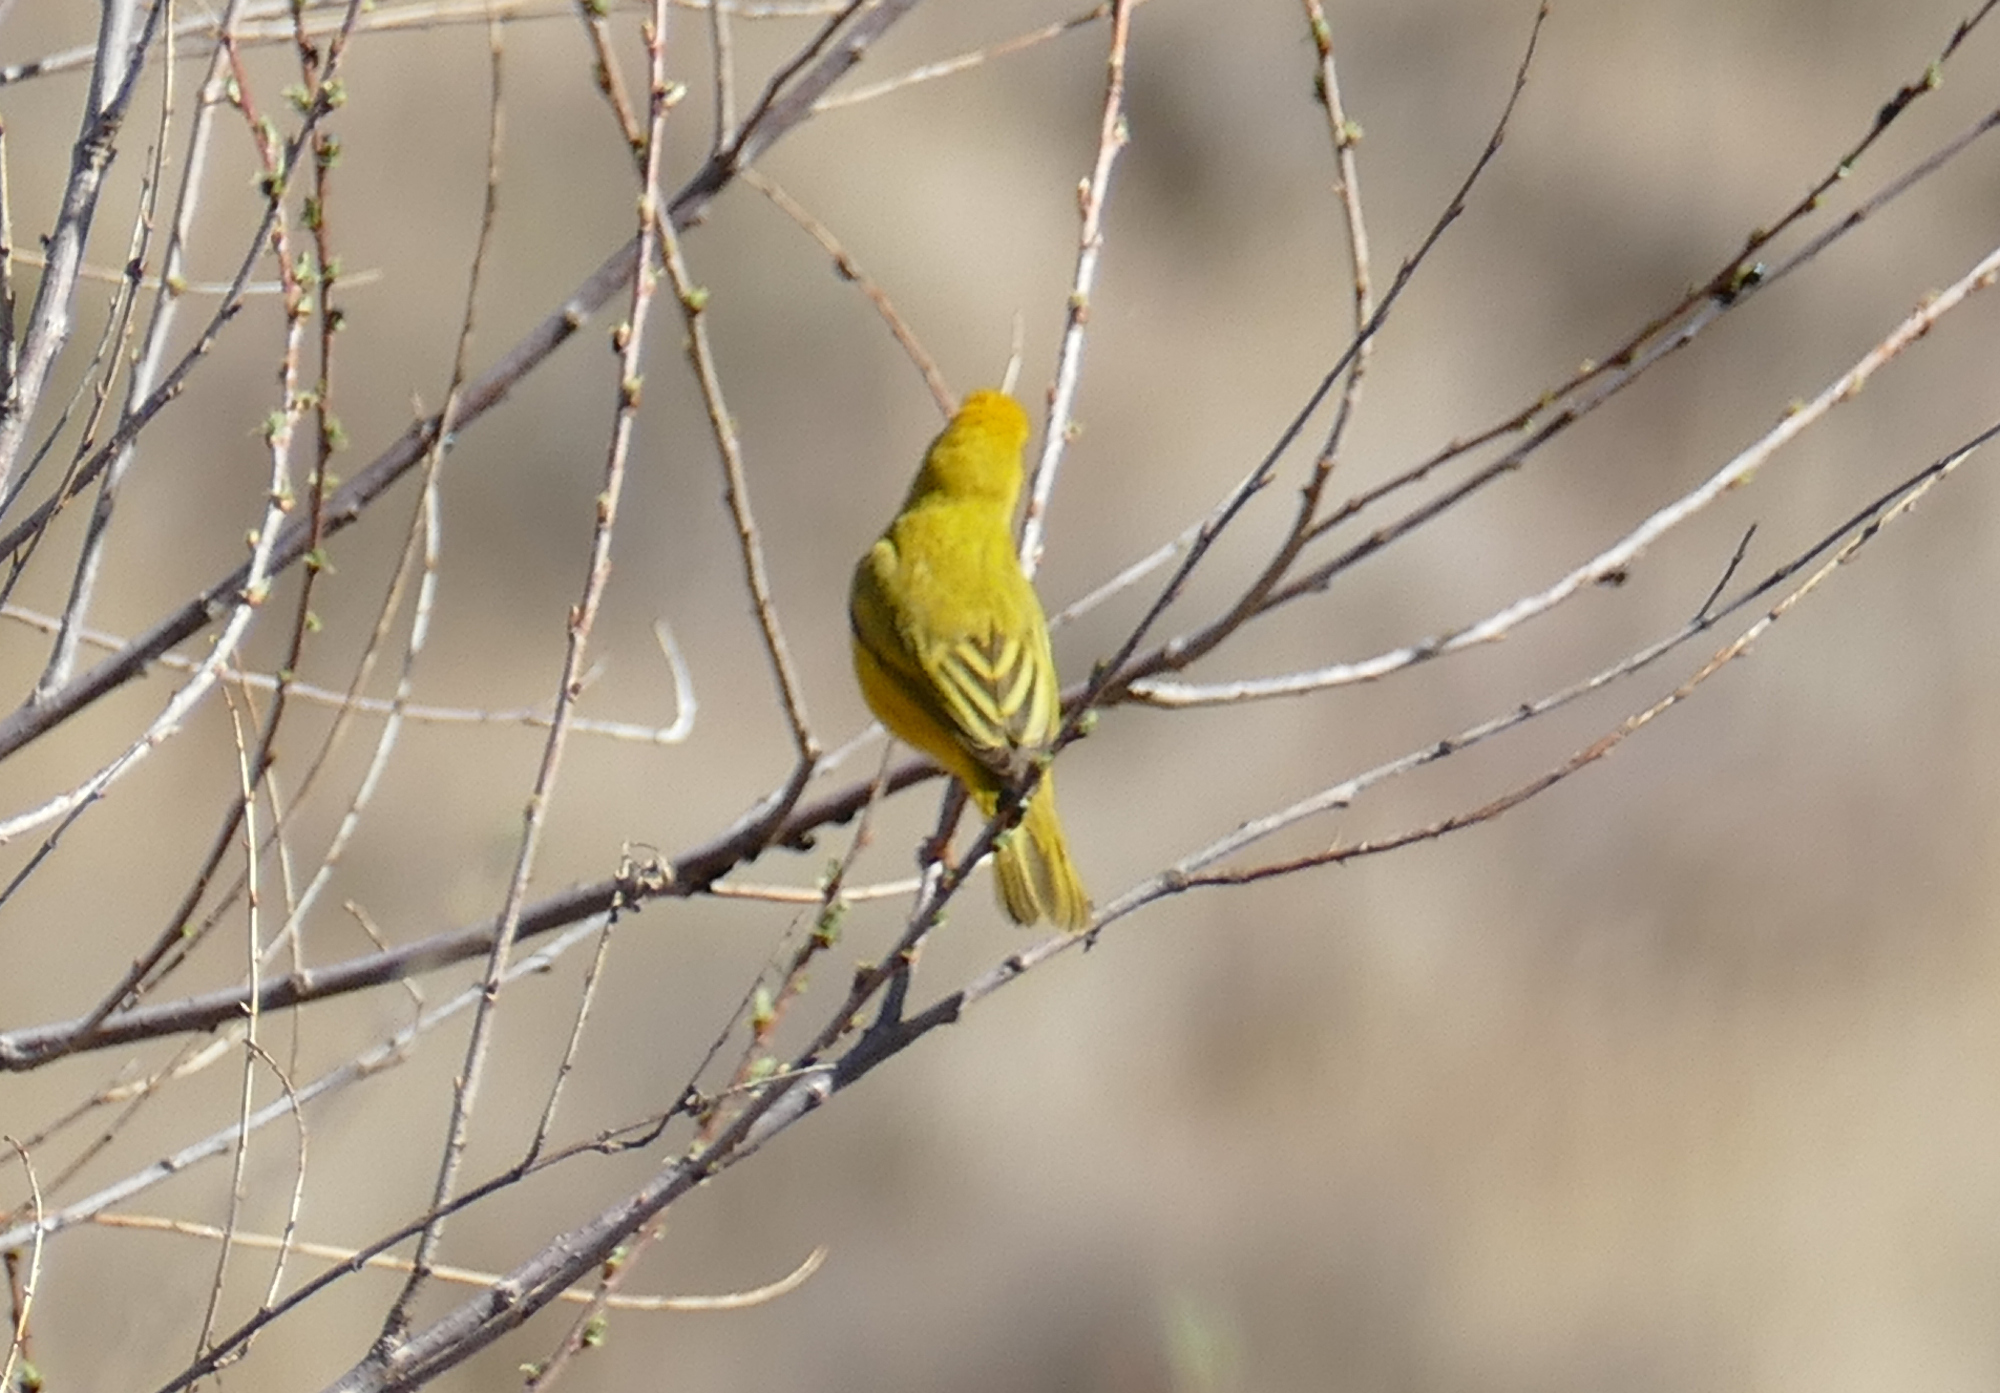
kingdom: Animalia
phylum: Chordata
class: Aves
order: Passeriformes
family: Parulidae
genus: Setophaga
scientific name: Setophaga petechia
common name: Yellow warbler
